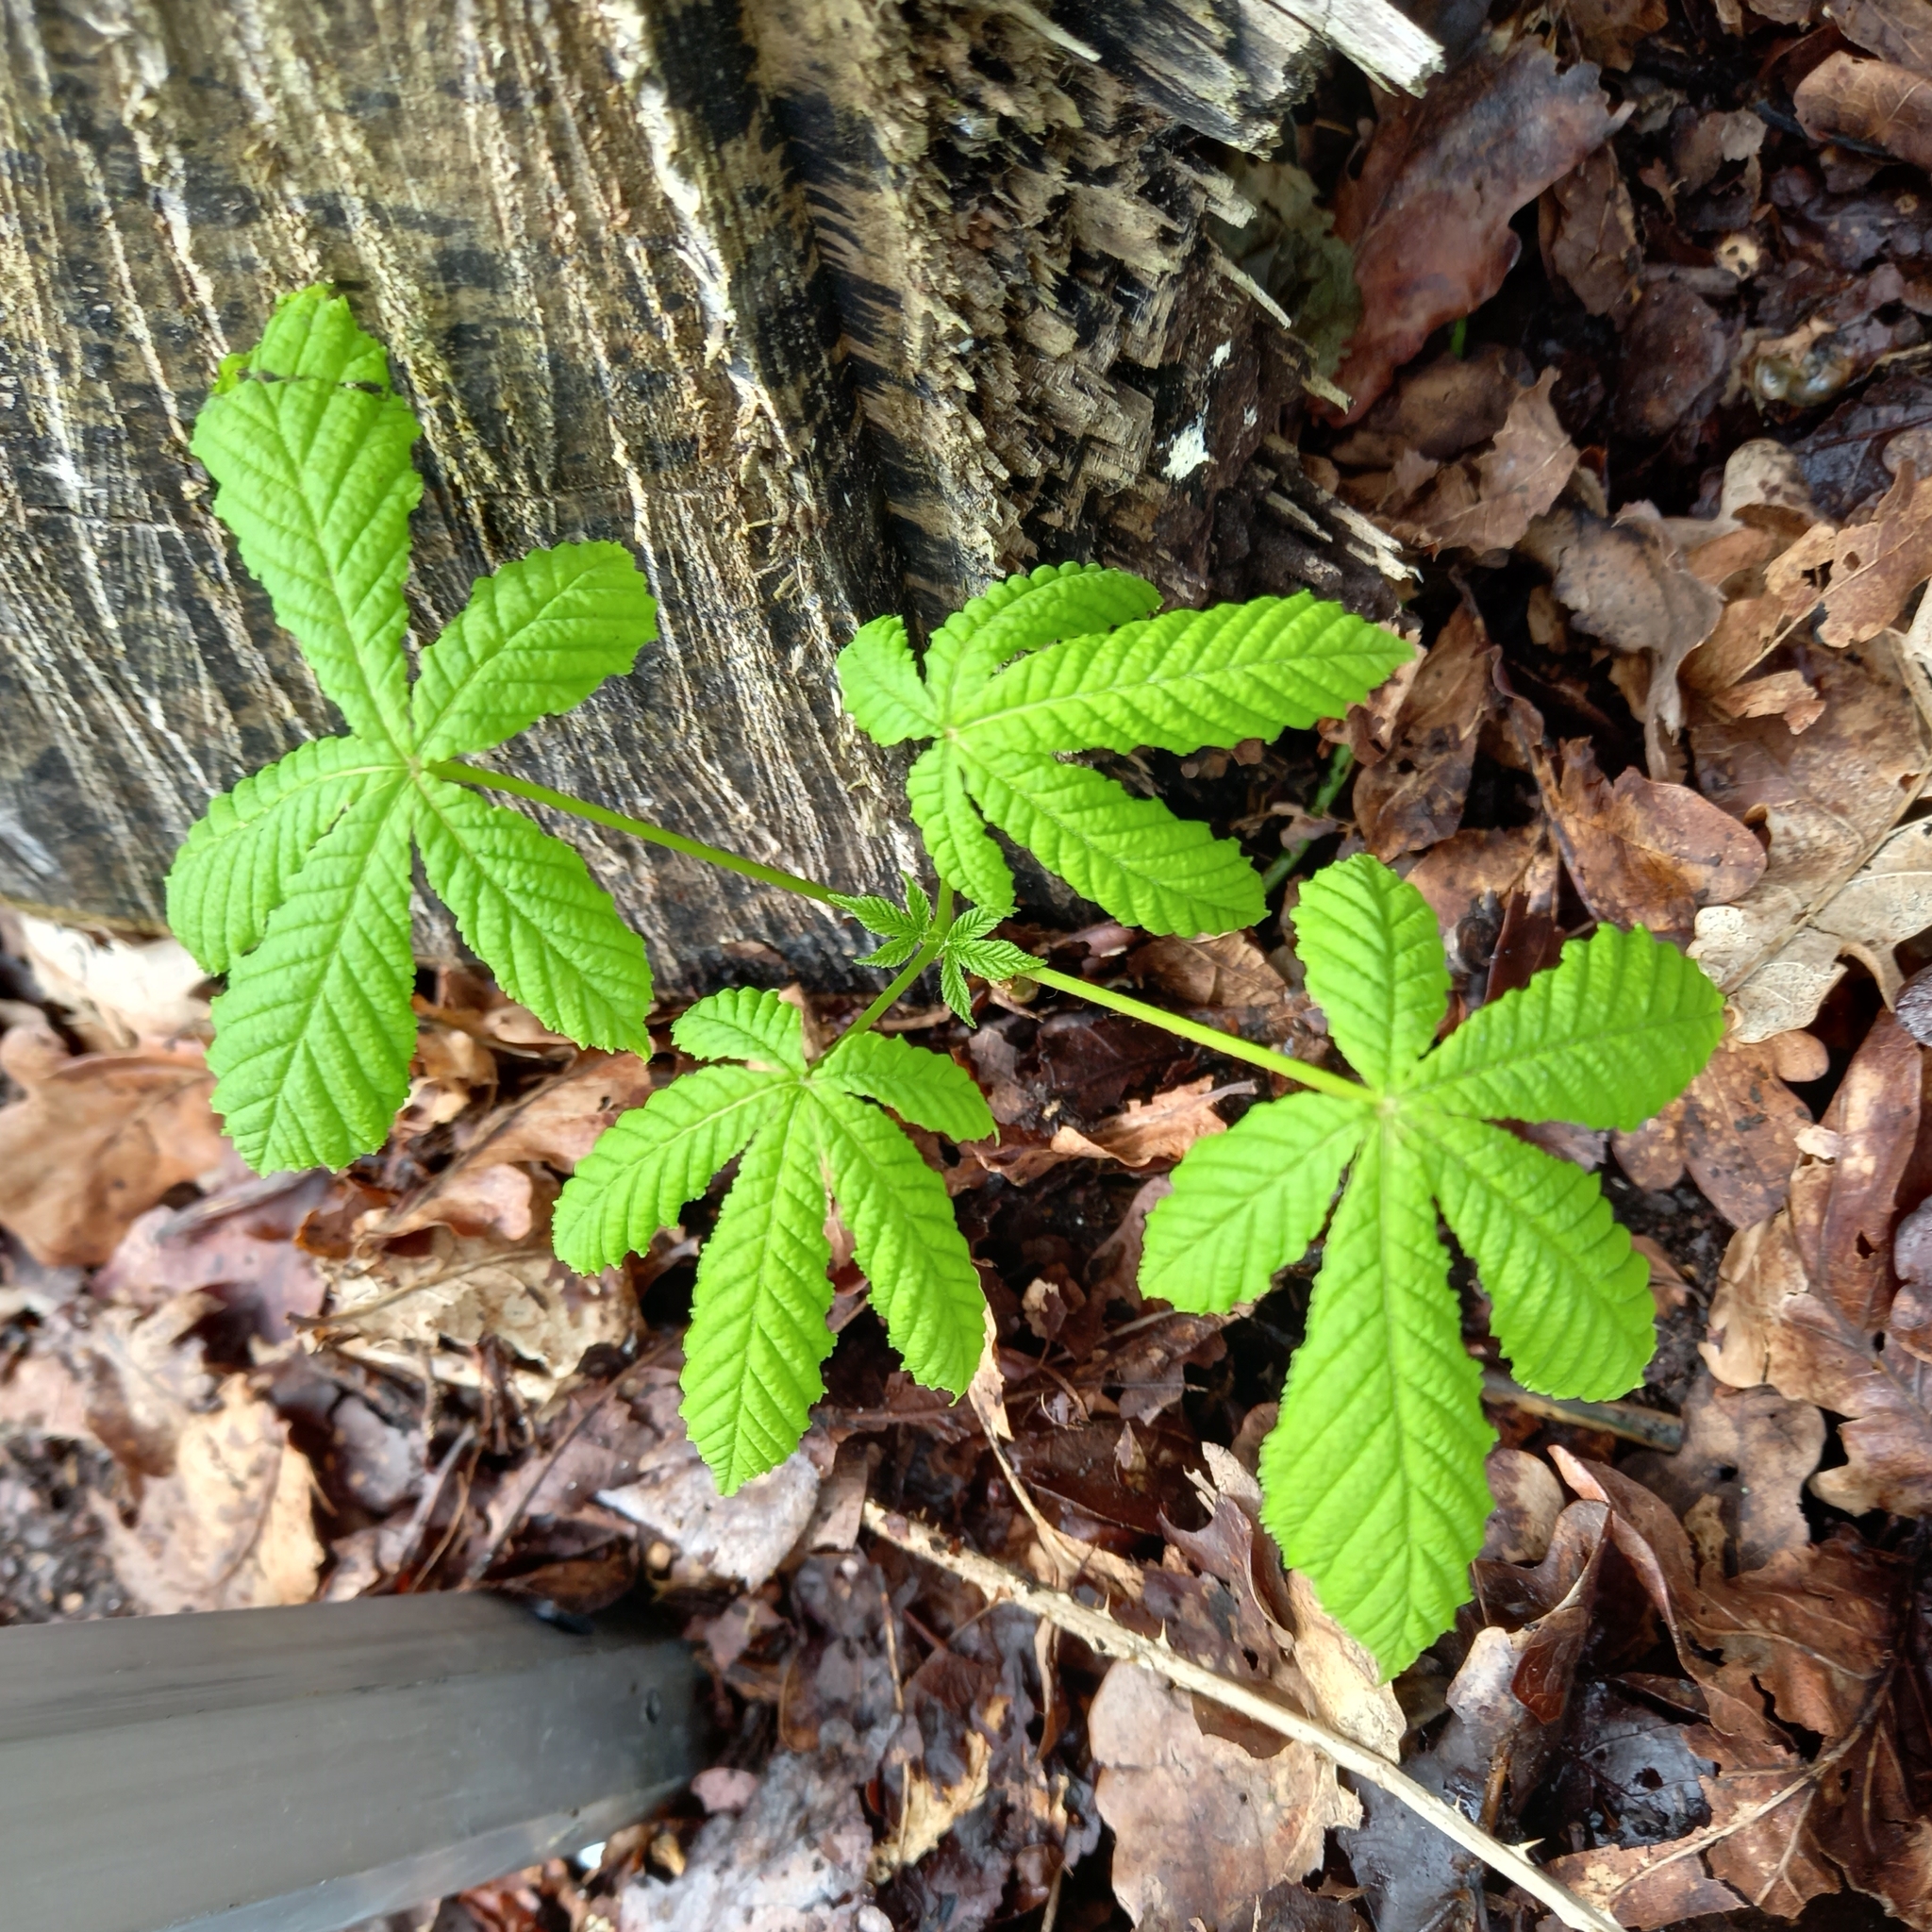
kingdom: Plantae
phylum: Tracheophyta
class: Magnoliopsida
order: Sapindales
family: Sapindaceae
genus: Aesculus
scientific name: Aesculus hippocastanum
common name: Horse-chestnut
